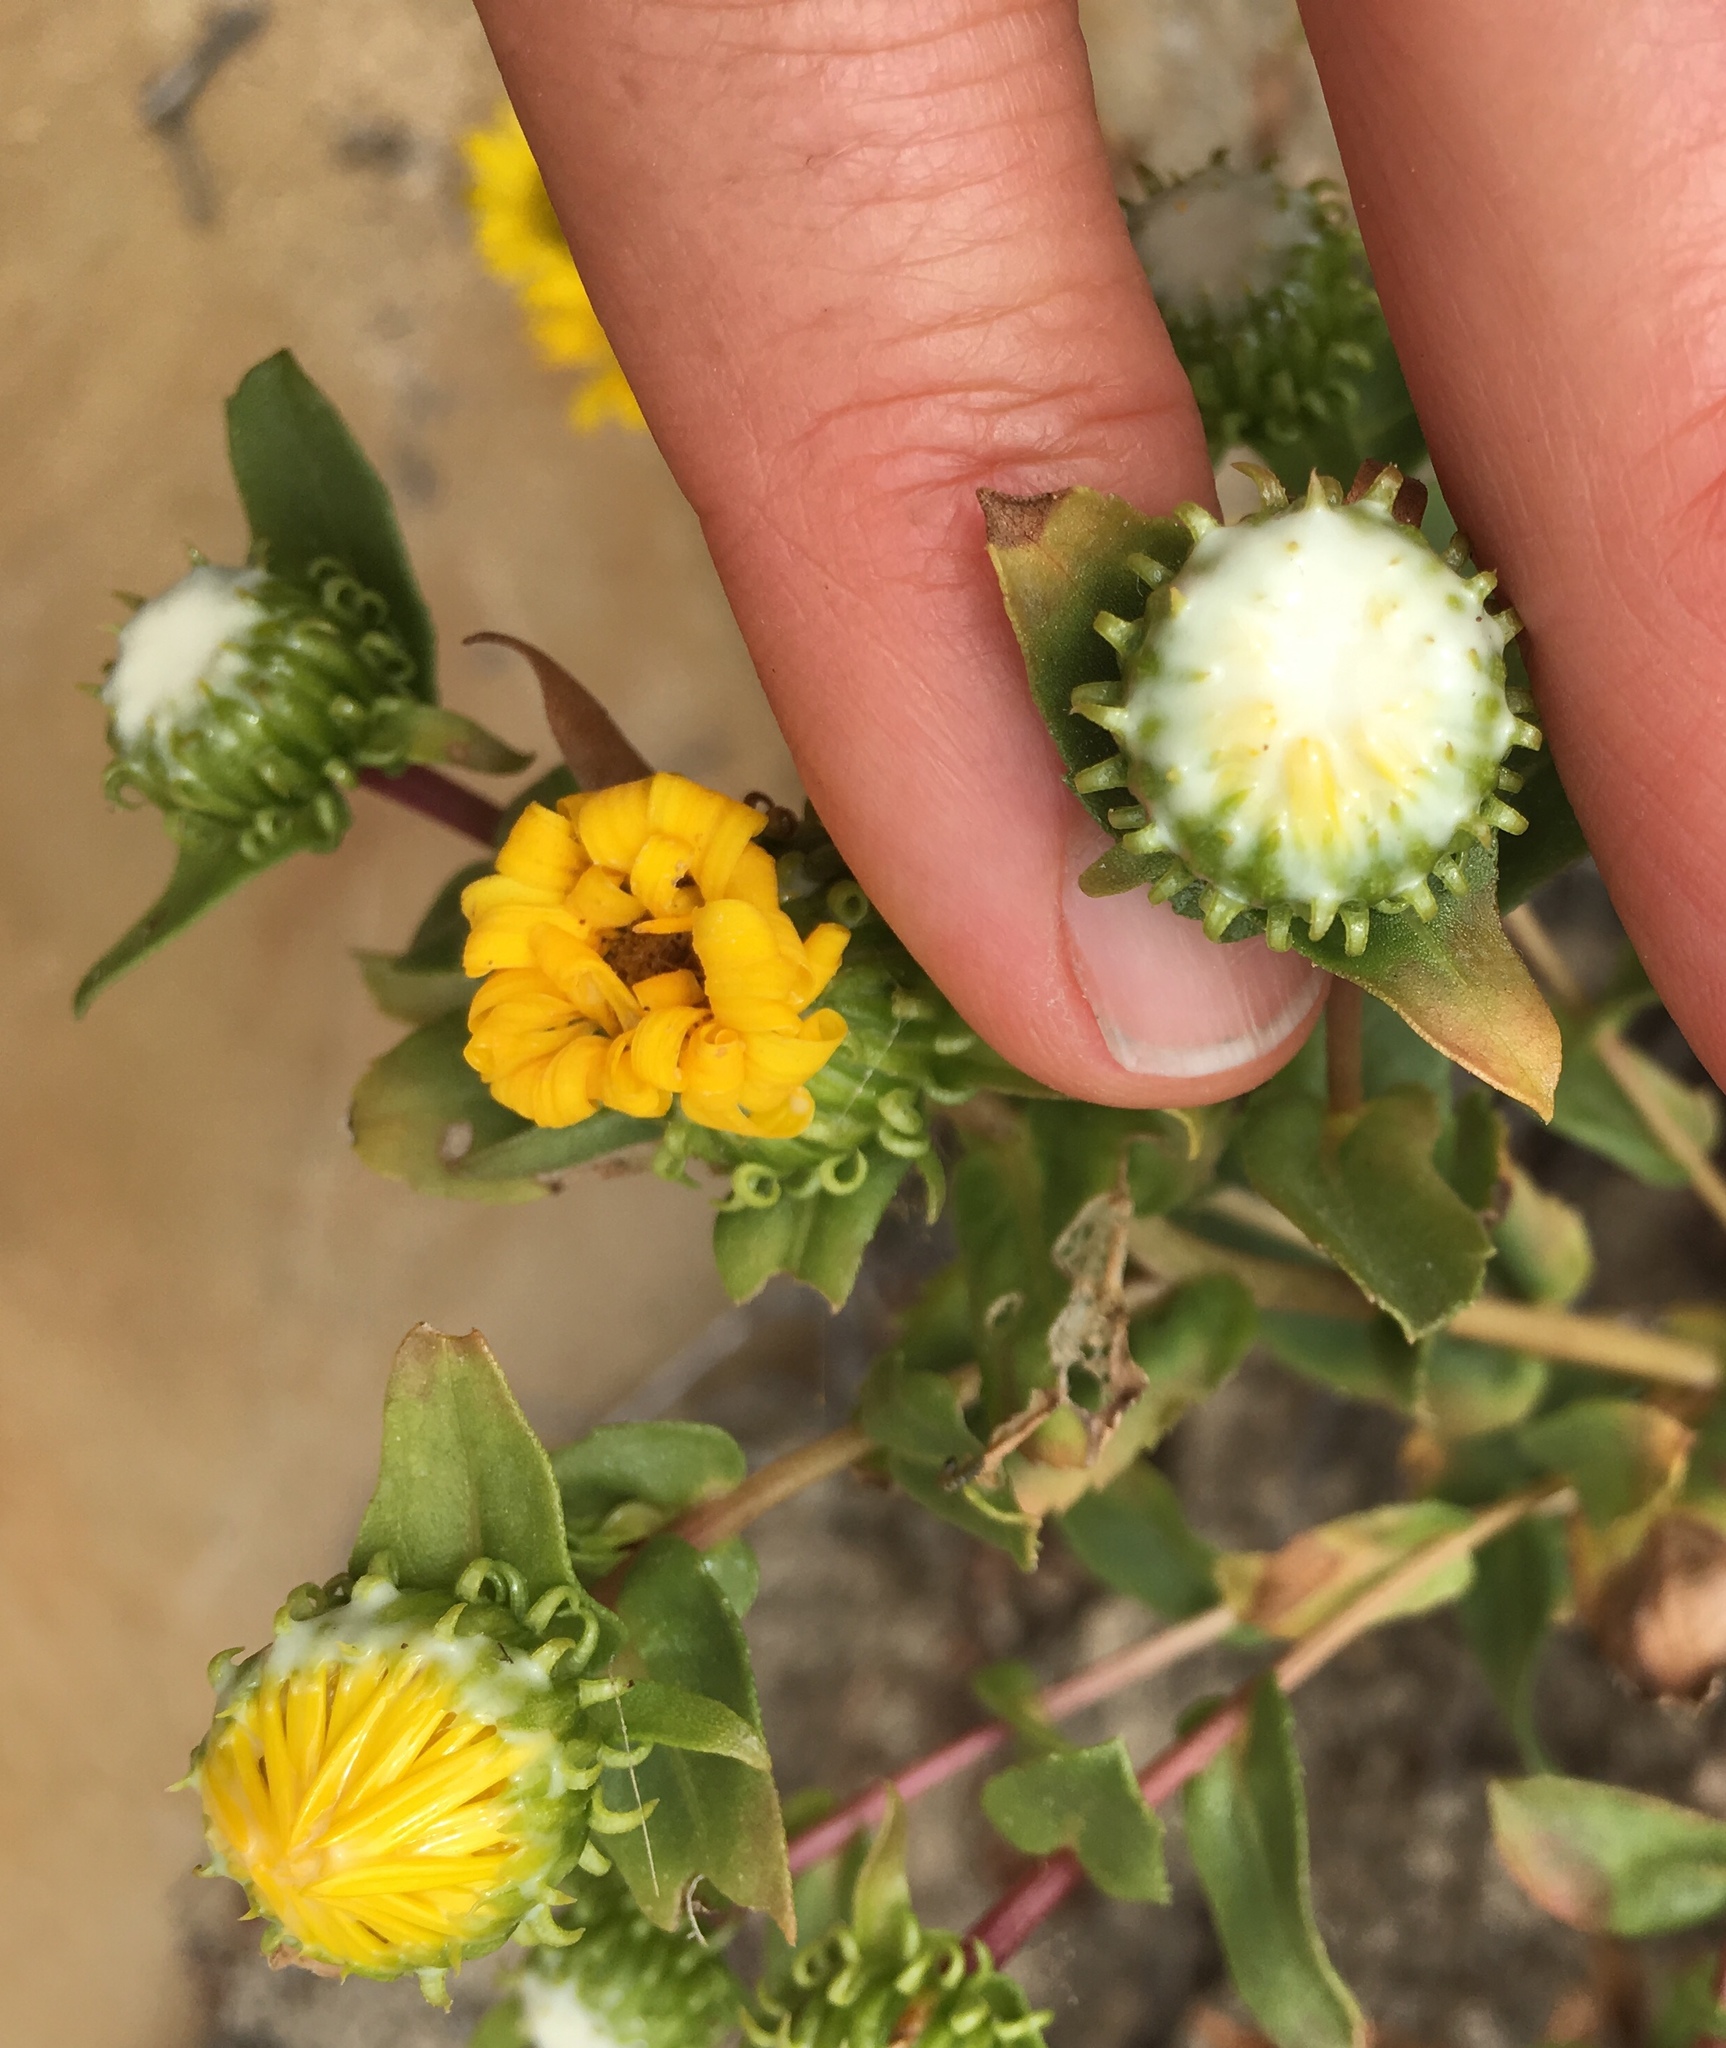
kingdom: Plantae
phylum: Tracheophyta
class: Magnoliopsida
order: Asterales
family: Asteraceae
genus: Grindelia
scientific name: Grindelia hirsutula
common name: Hairy gumweed
